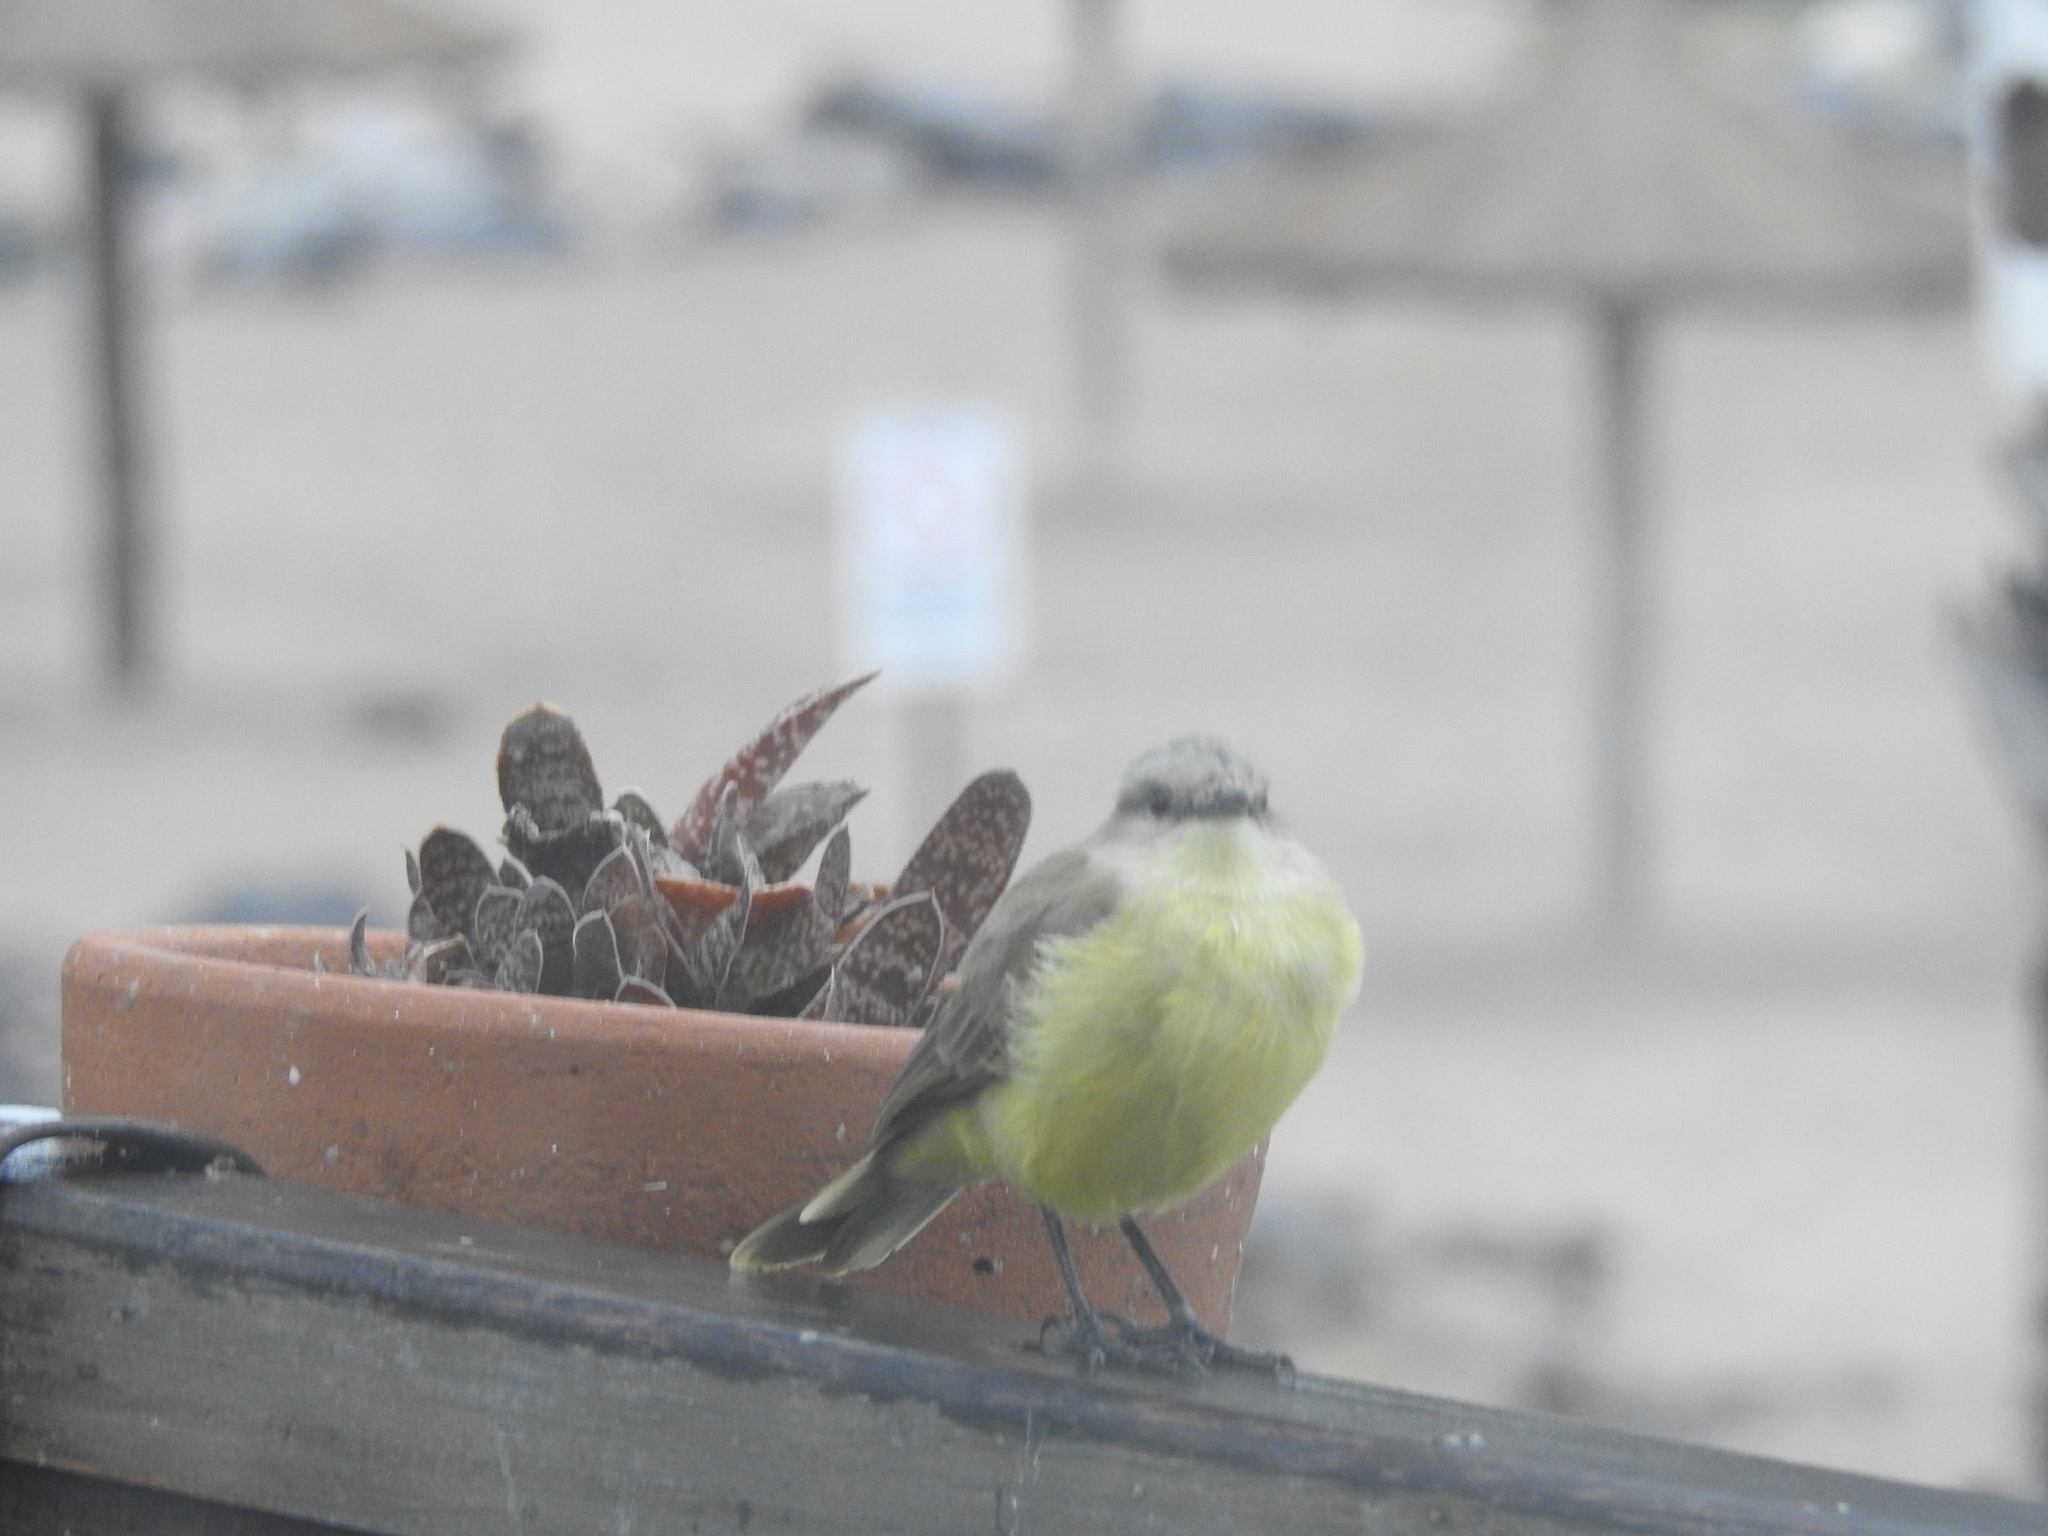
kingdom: Animalia
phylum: Chordata
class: Aves
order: Passeriformes
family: Tyrannidae
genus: Machetornis
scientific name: Machetornis rixosa
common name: Cattle tyrant
